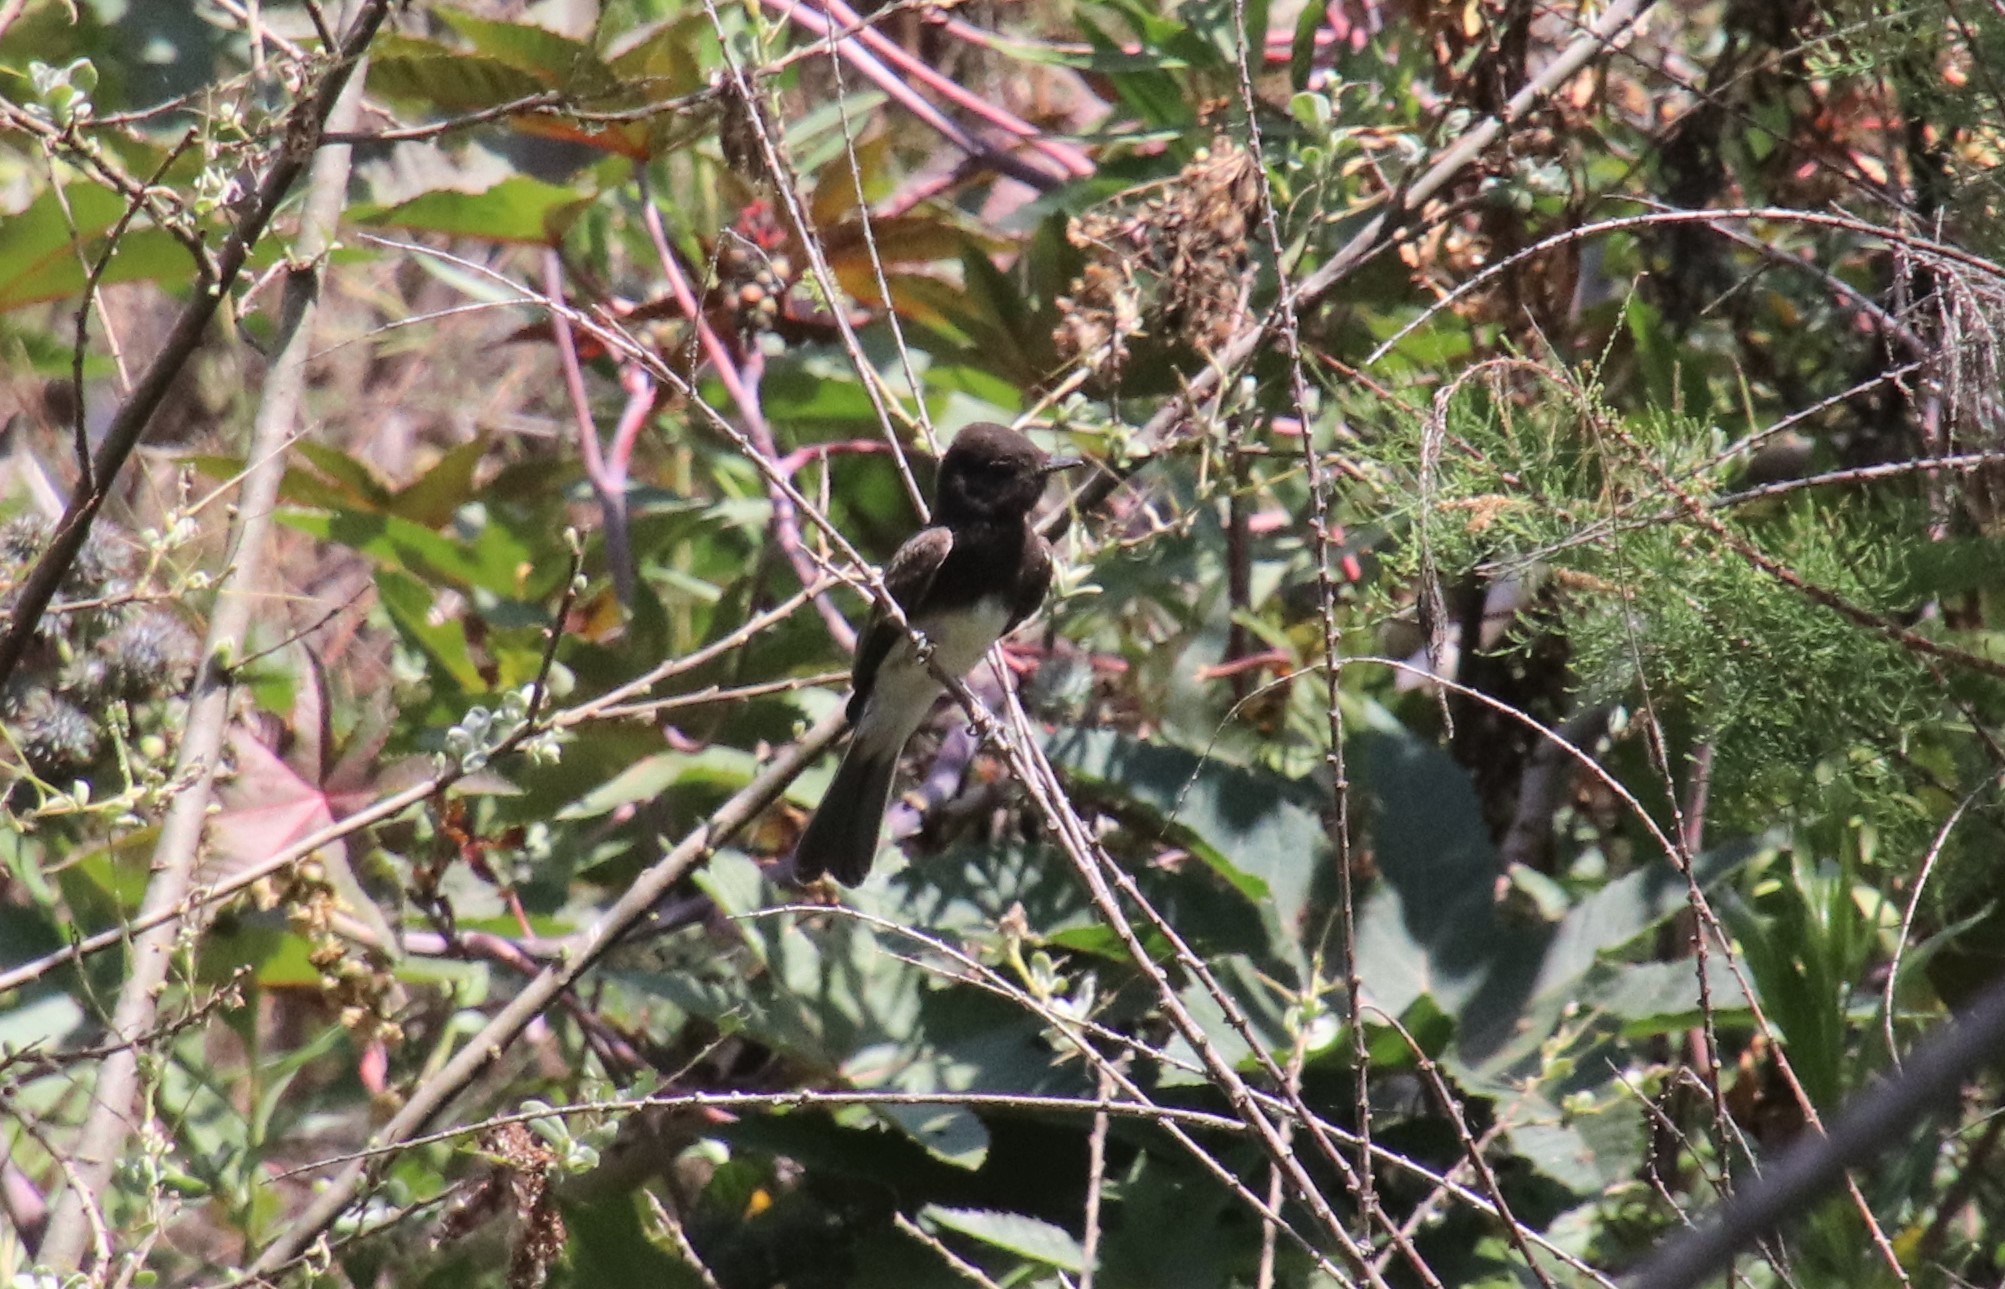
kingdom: Animalia
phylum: Chordata
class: Aves
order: Passeriformes
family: Tyrannidae
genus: Sayornis
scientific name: Sayornis nigricans
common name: Black phoebe
